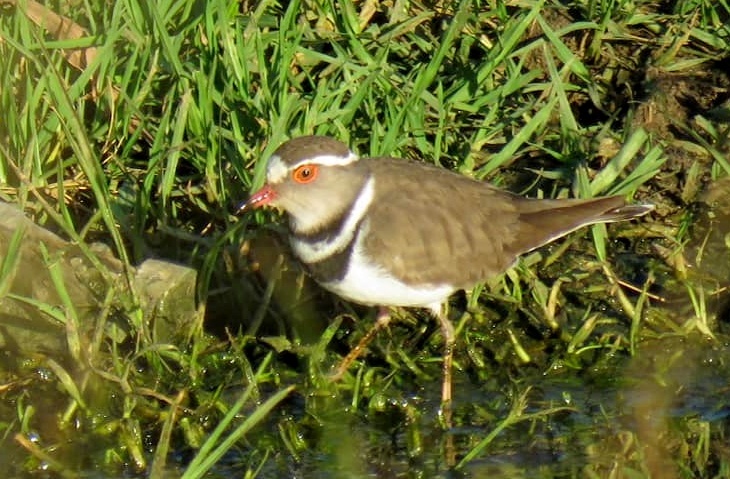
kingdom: Animalia
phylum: Chordata
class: Aves
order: Charadriiformes
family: Charadriidae
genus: Charadrius
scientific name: Charadrius tricollaris
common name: Three-banded plover
